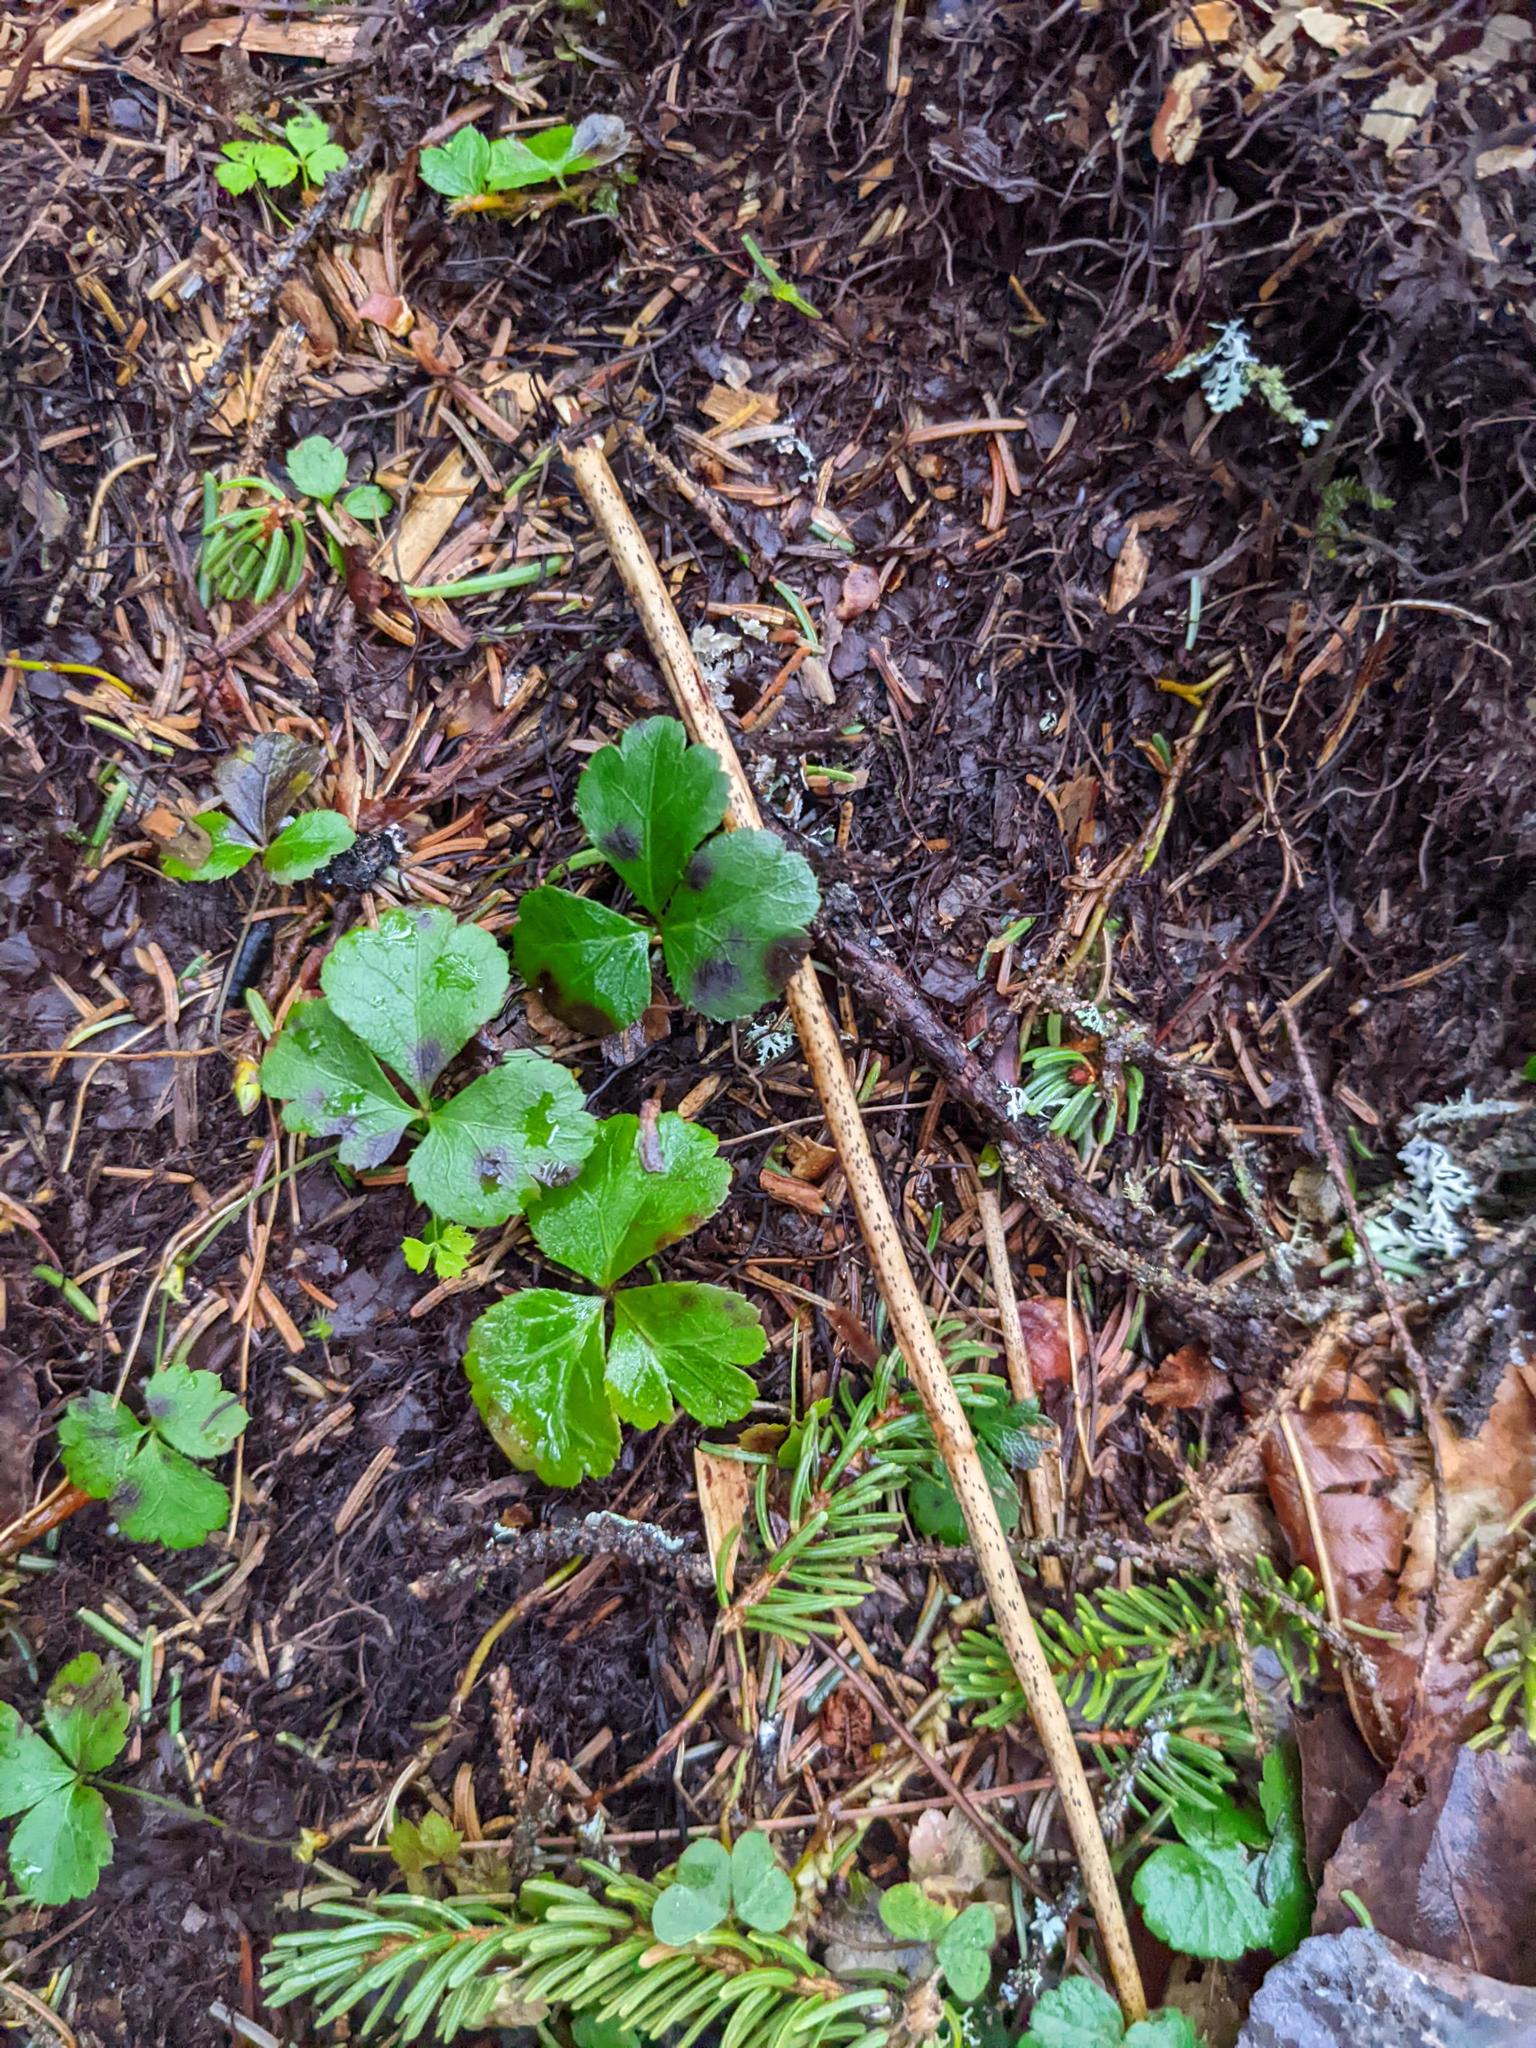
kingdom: Plantae
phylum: Tracheophyta
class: Magnoliopsida
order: Ranunculales
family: Ranunculaceae
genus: Coptis
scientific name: Coptis trifolia
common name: Canker-root
